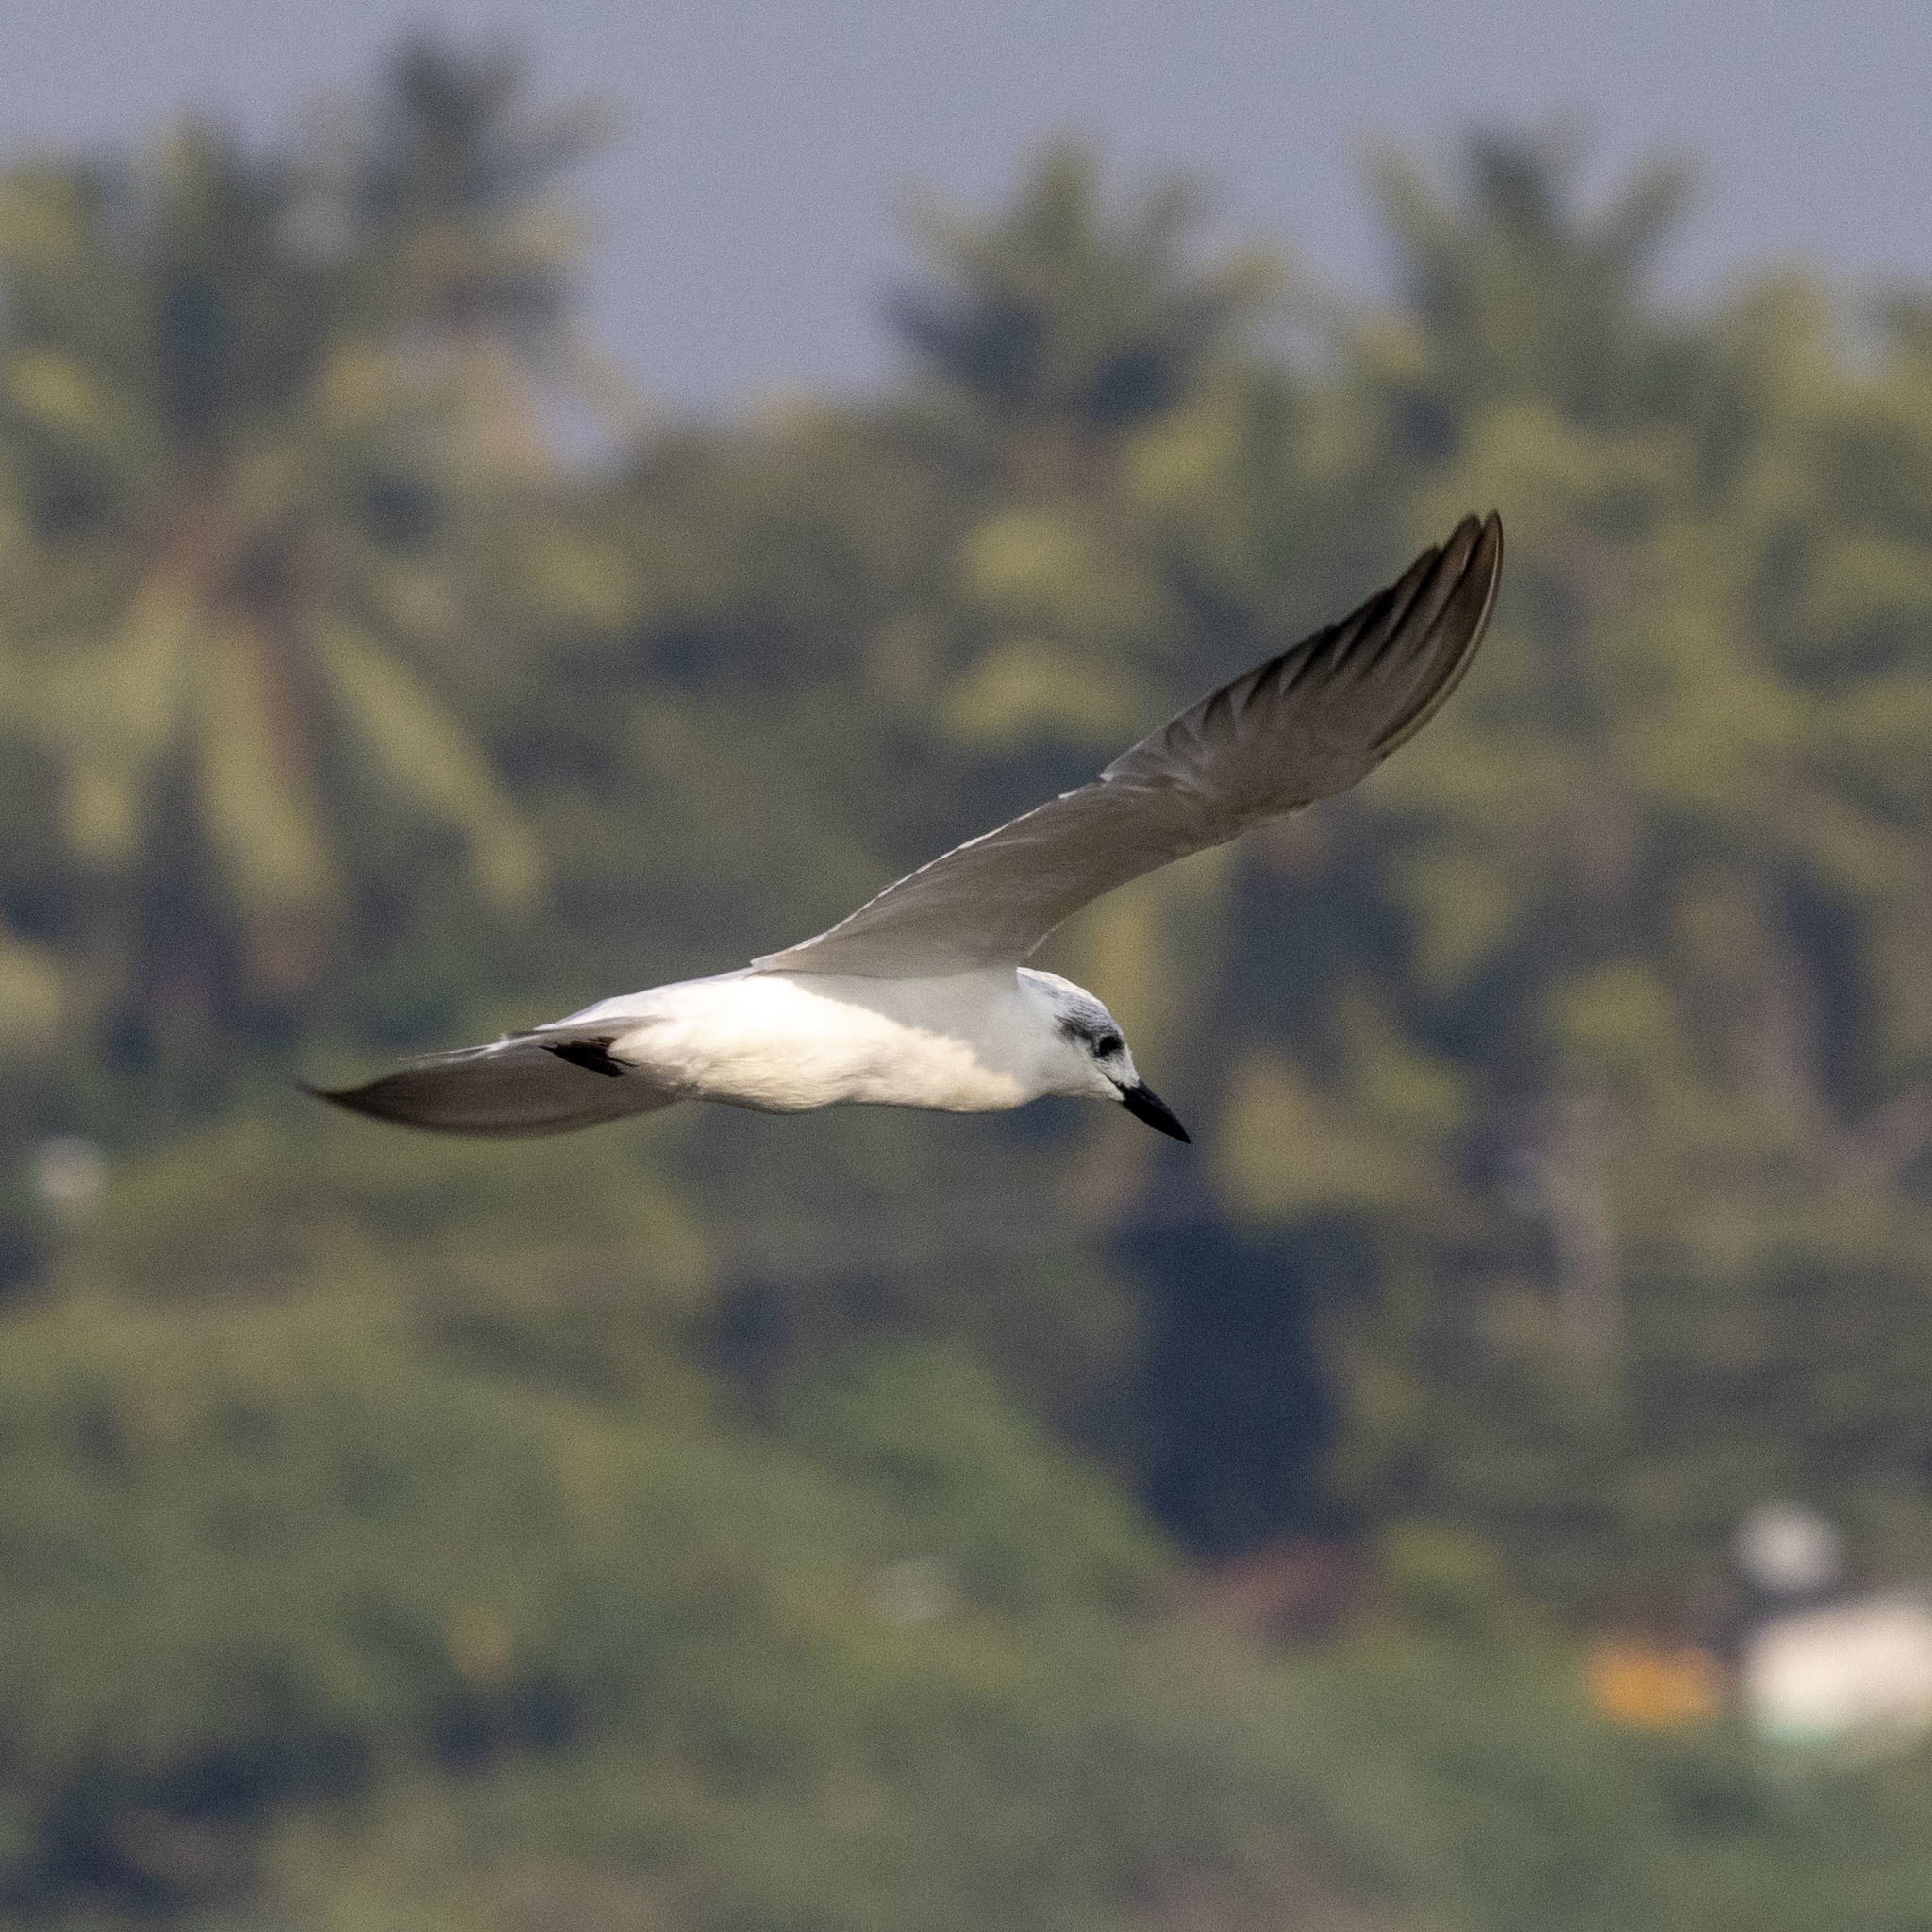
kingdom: Animalia
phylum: Chordata
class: Aves
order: Charadriiformes
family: Laridae
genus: Gelochelidon
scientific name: Gelochelidon nilotica
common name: Gull-billed tern
